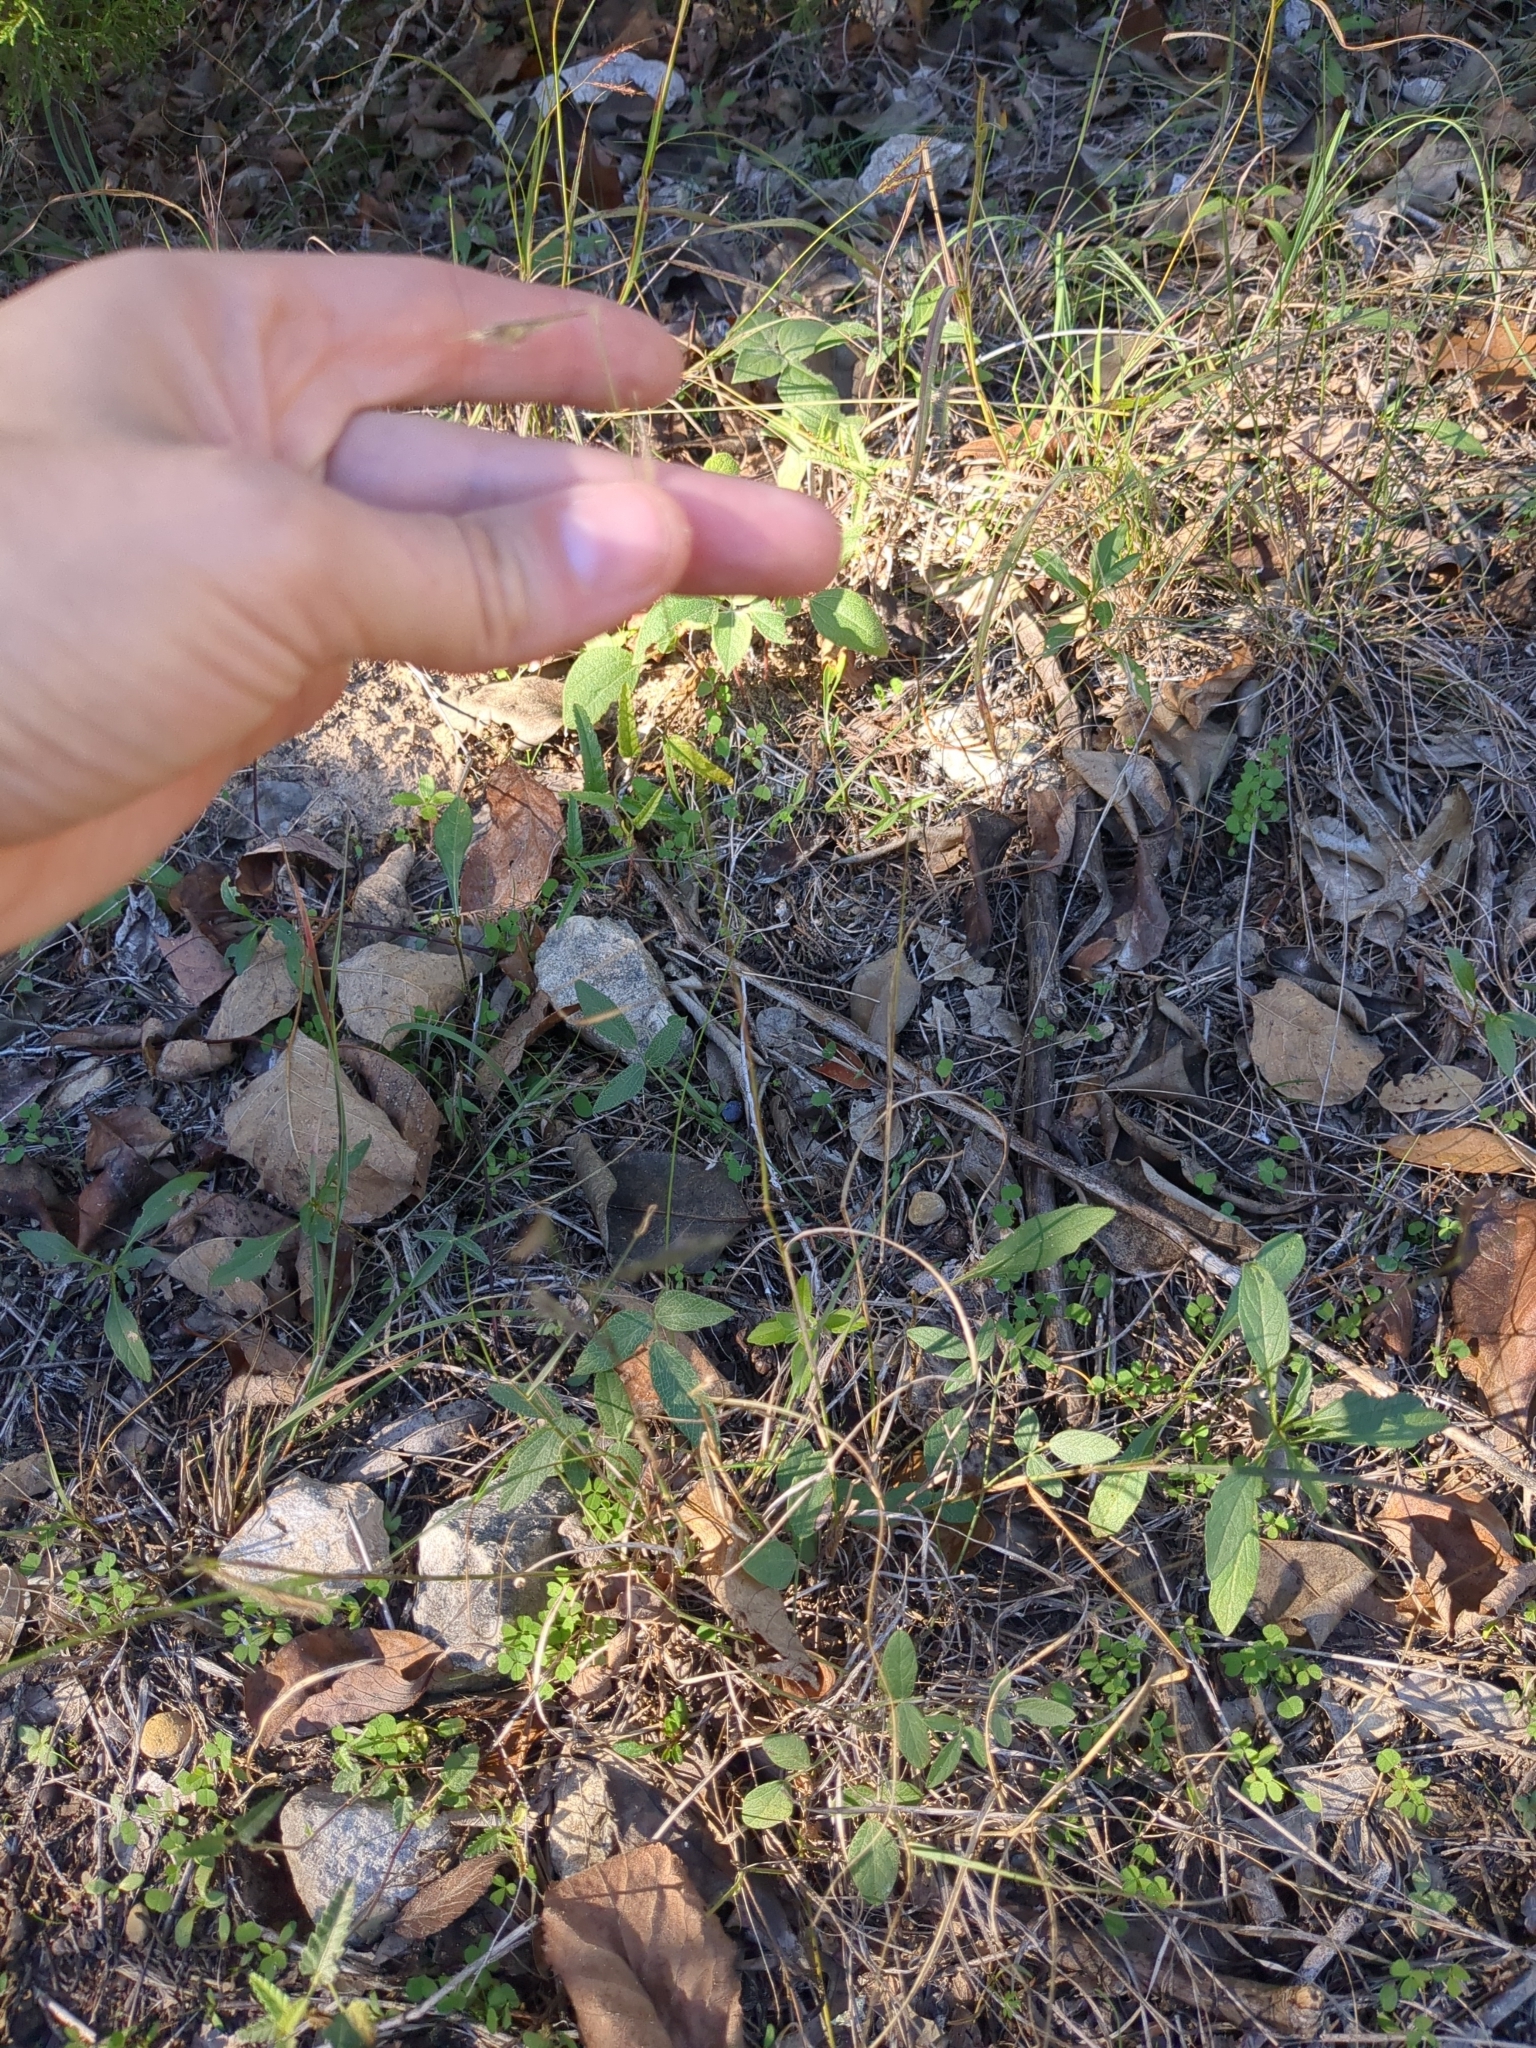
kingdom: Plantae
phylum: Tracheophyta
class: Liliopsida
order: Poales
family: Poaceae
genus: Bouteloua
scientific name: Bouteloua hirsuta
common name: Hairy grama
